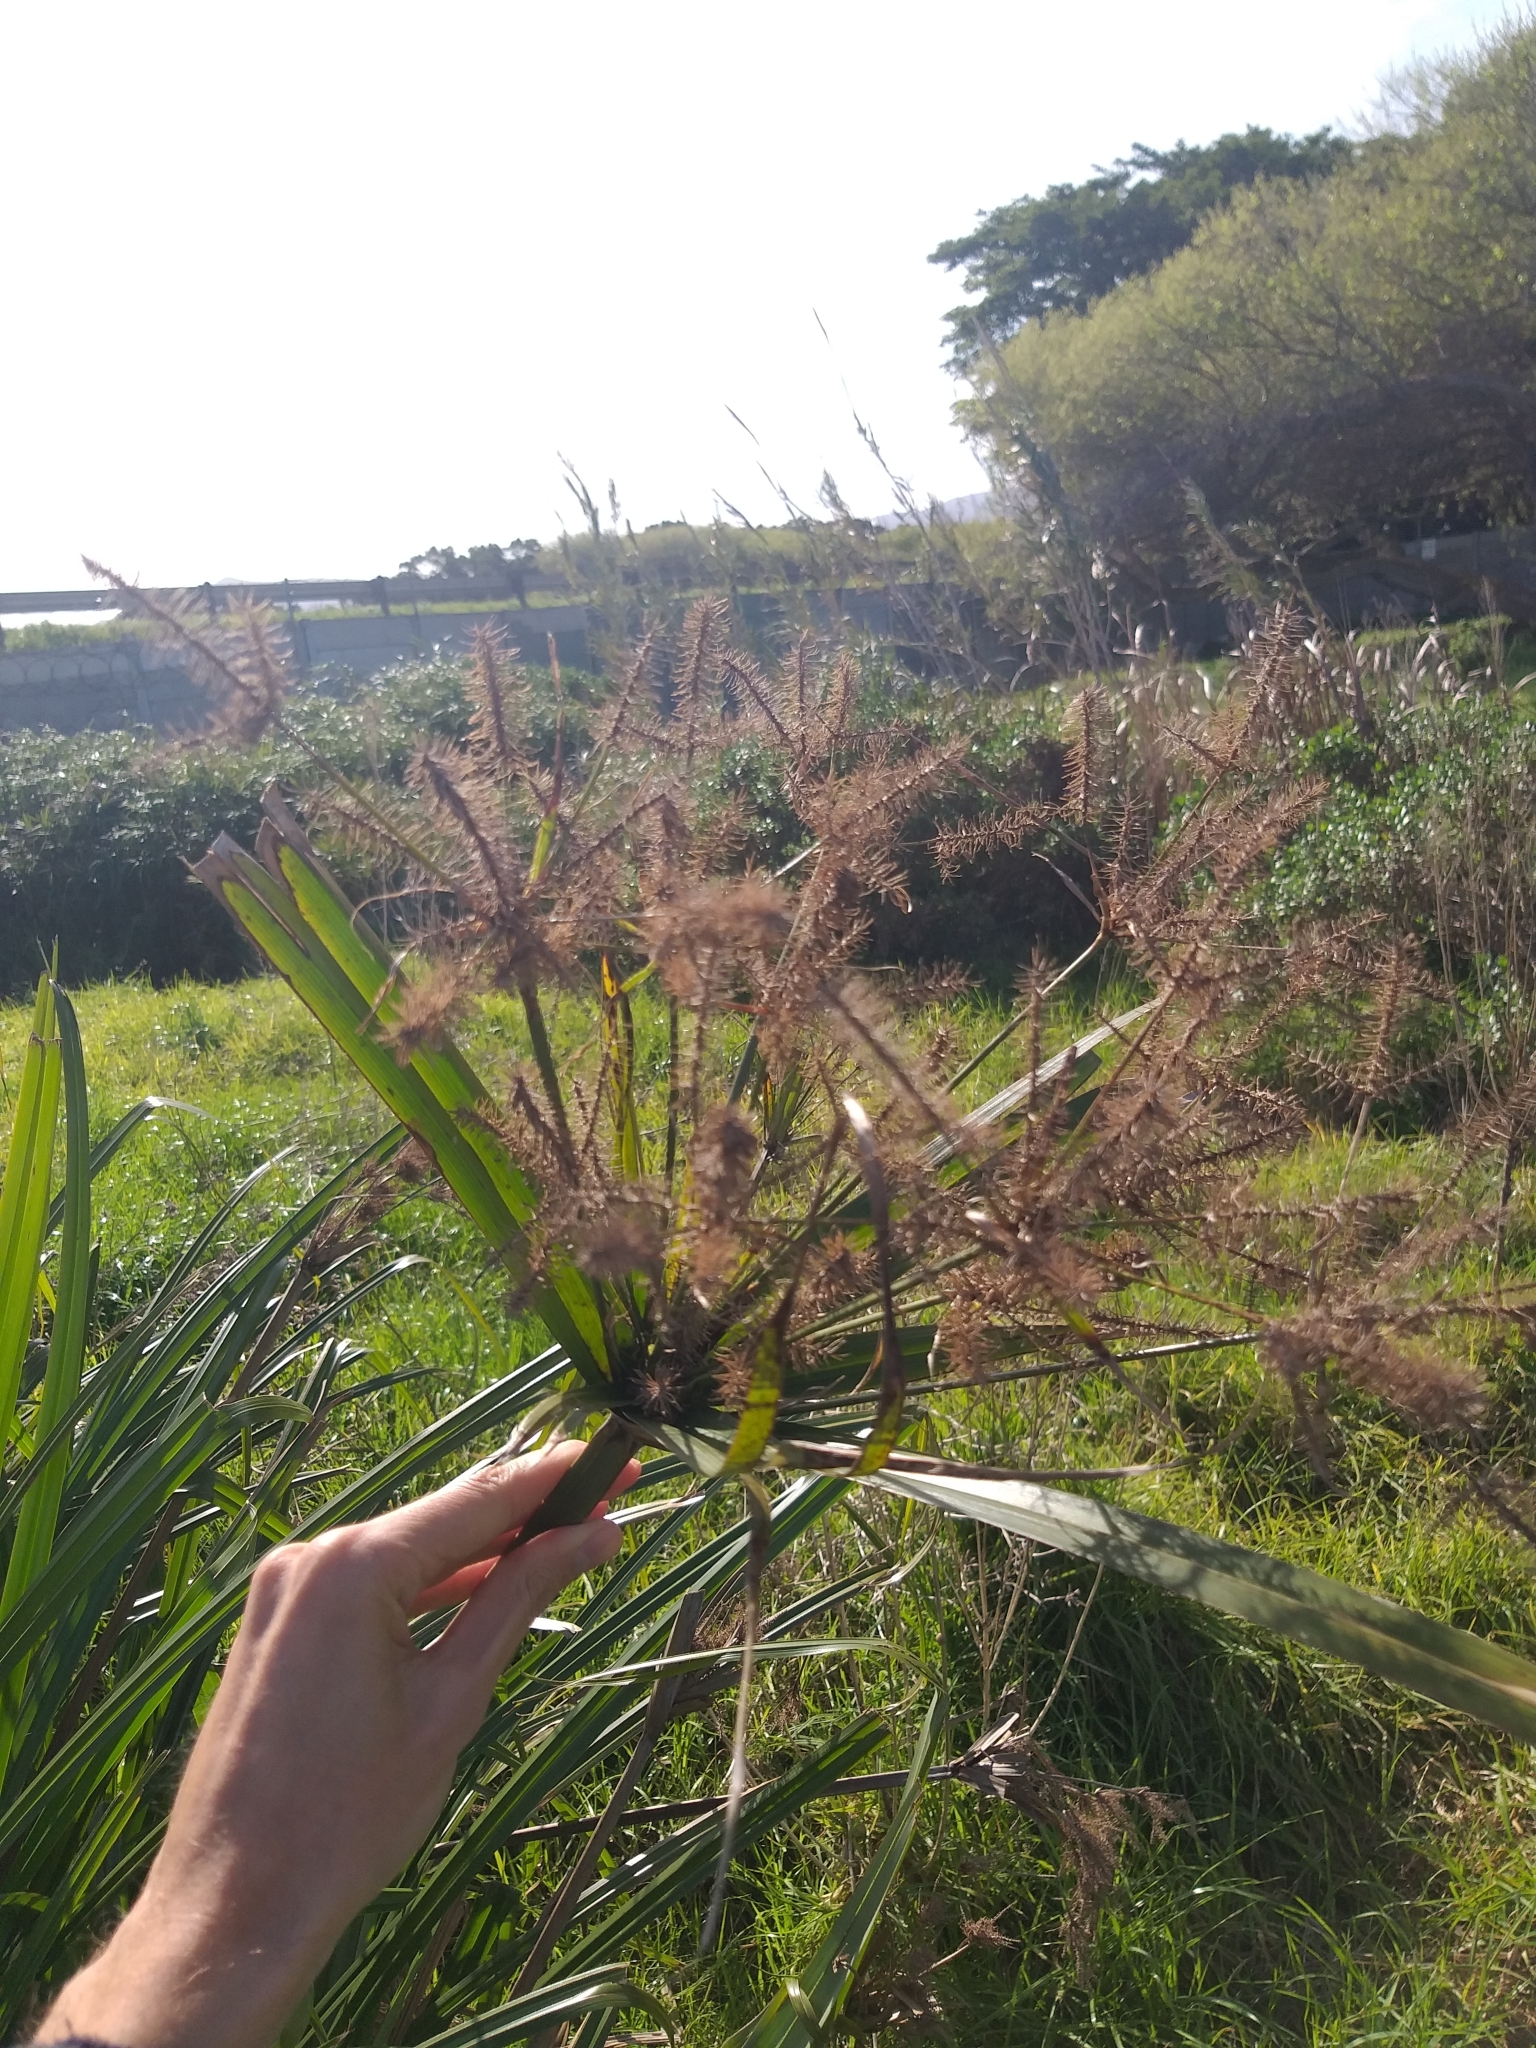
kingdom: Plantae
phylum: Tracheophyta
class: Liliopsida
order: Poales
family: Cyperaceae
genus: Cyperus
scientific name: Cyperus dives
